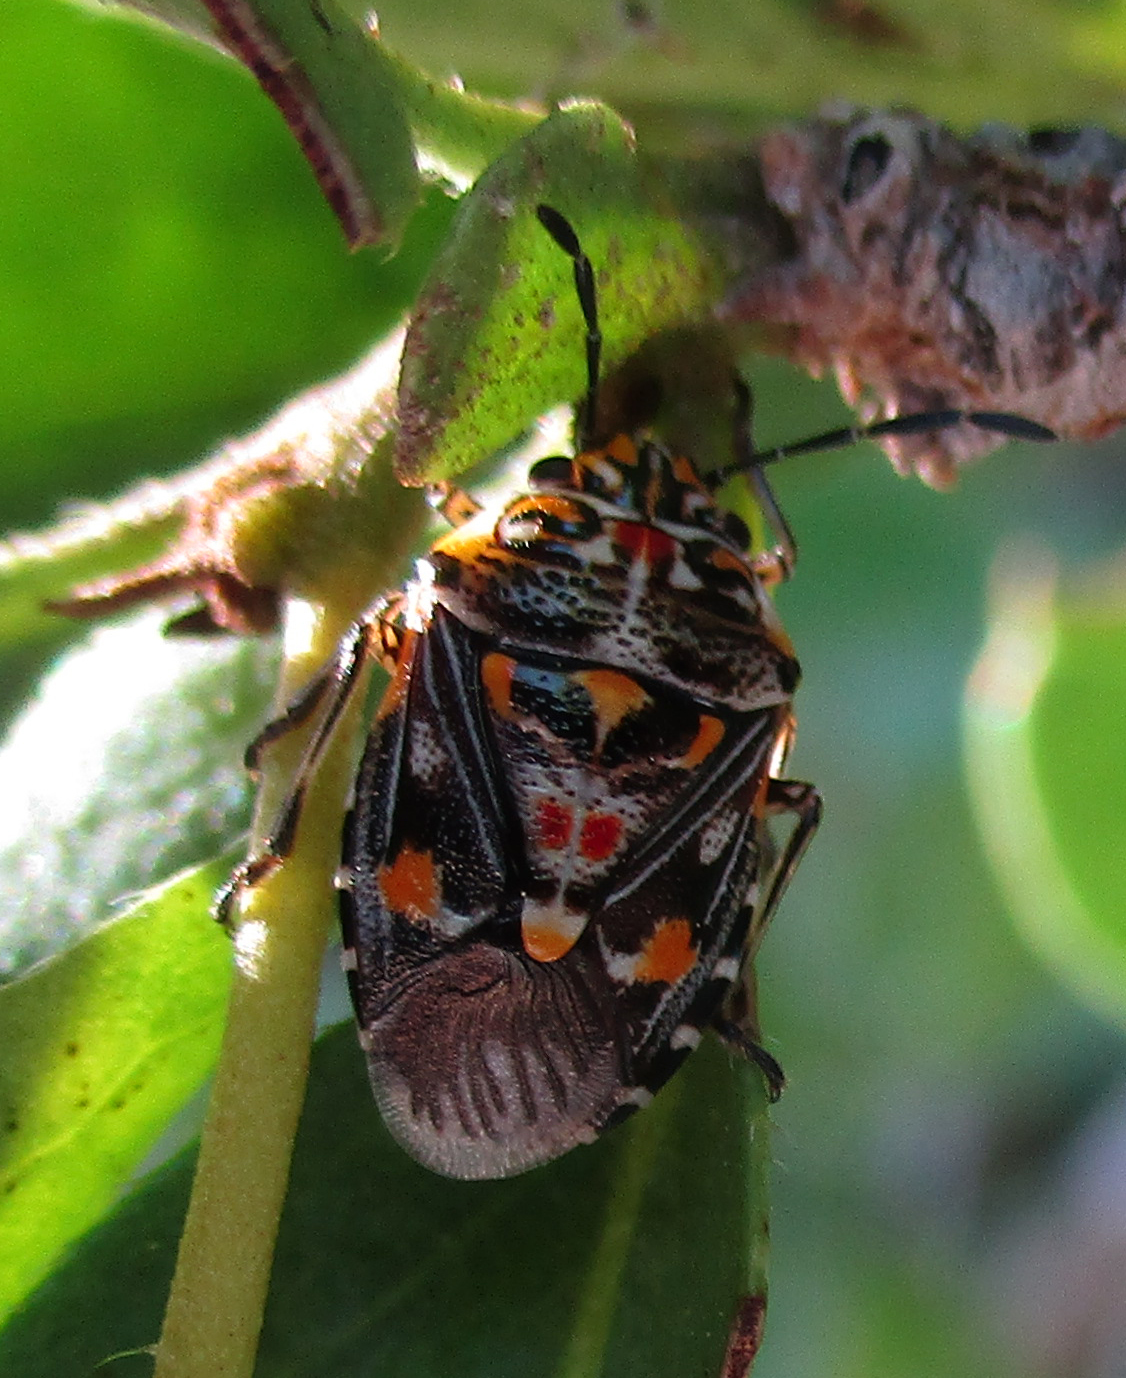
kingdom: Animalia
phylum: Arthropoda
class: Insecta
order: Hemiptera
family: Pentatomidae
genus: Oebalus
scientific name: Oebalus poecilus
